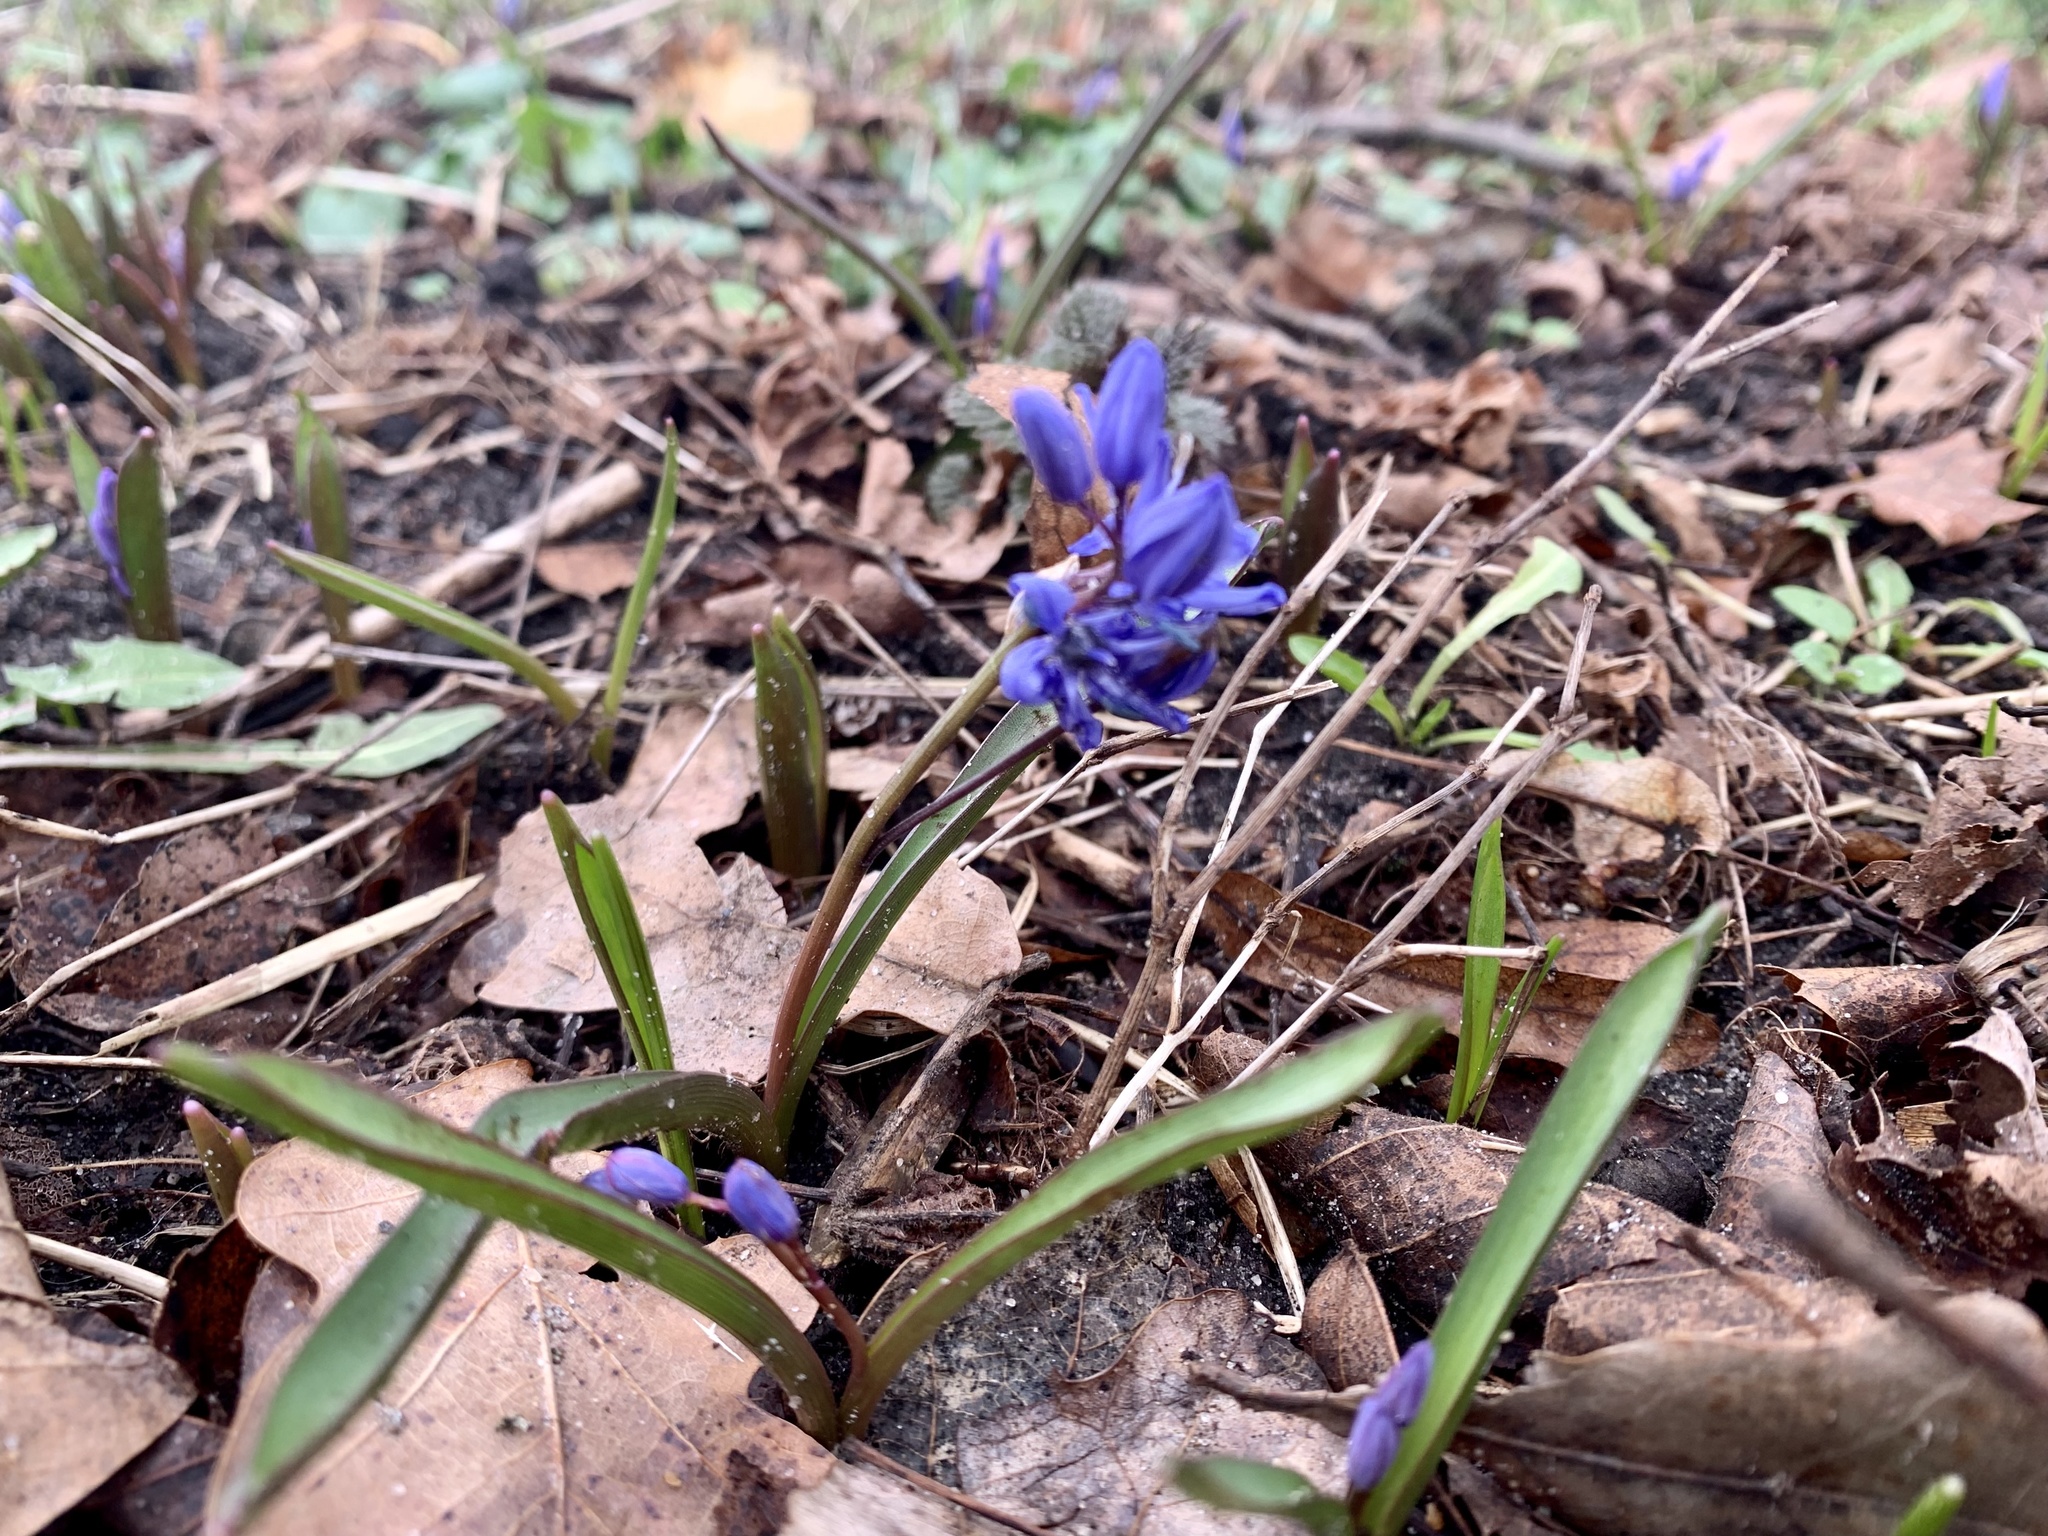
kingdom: Plantae
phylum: Tracheophyta
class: Liliopsida
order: Asparagales
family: Asparagaceae
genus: Scilla
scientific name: Scilla bifolia
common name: Alpine squill
